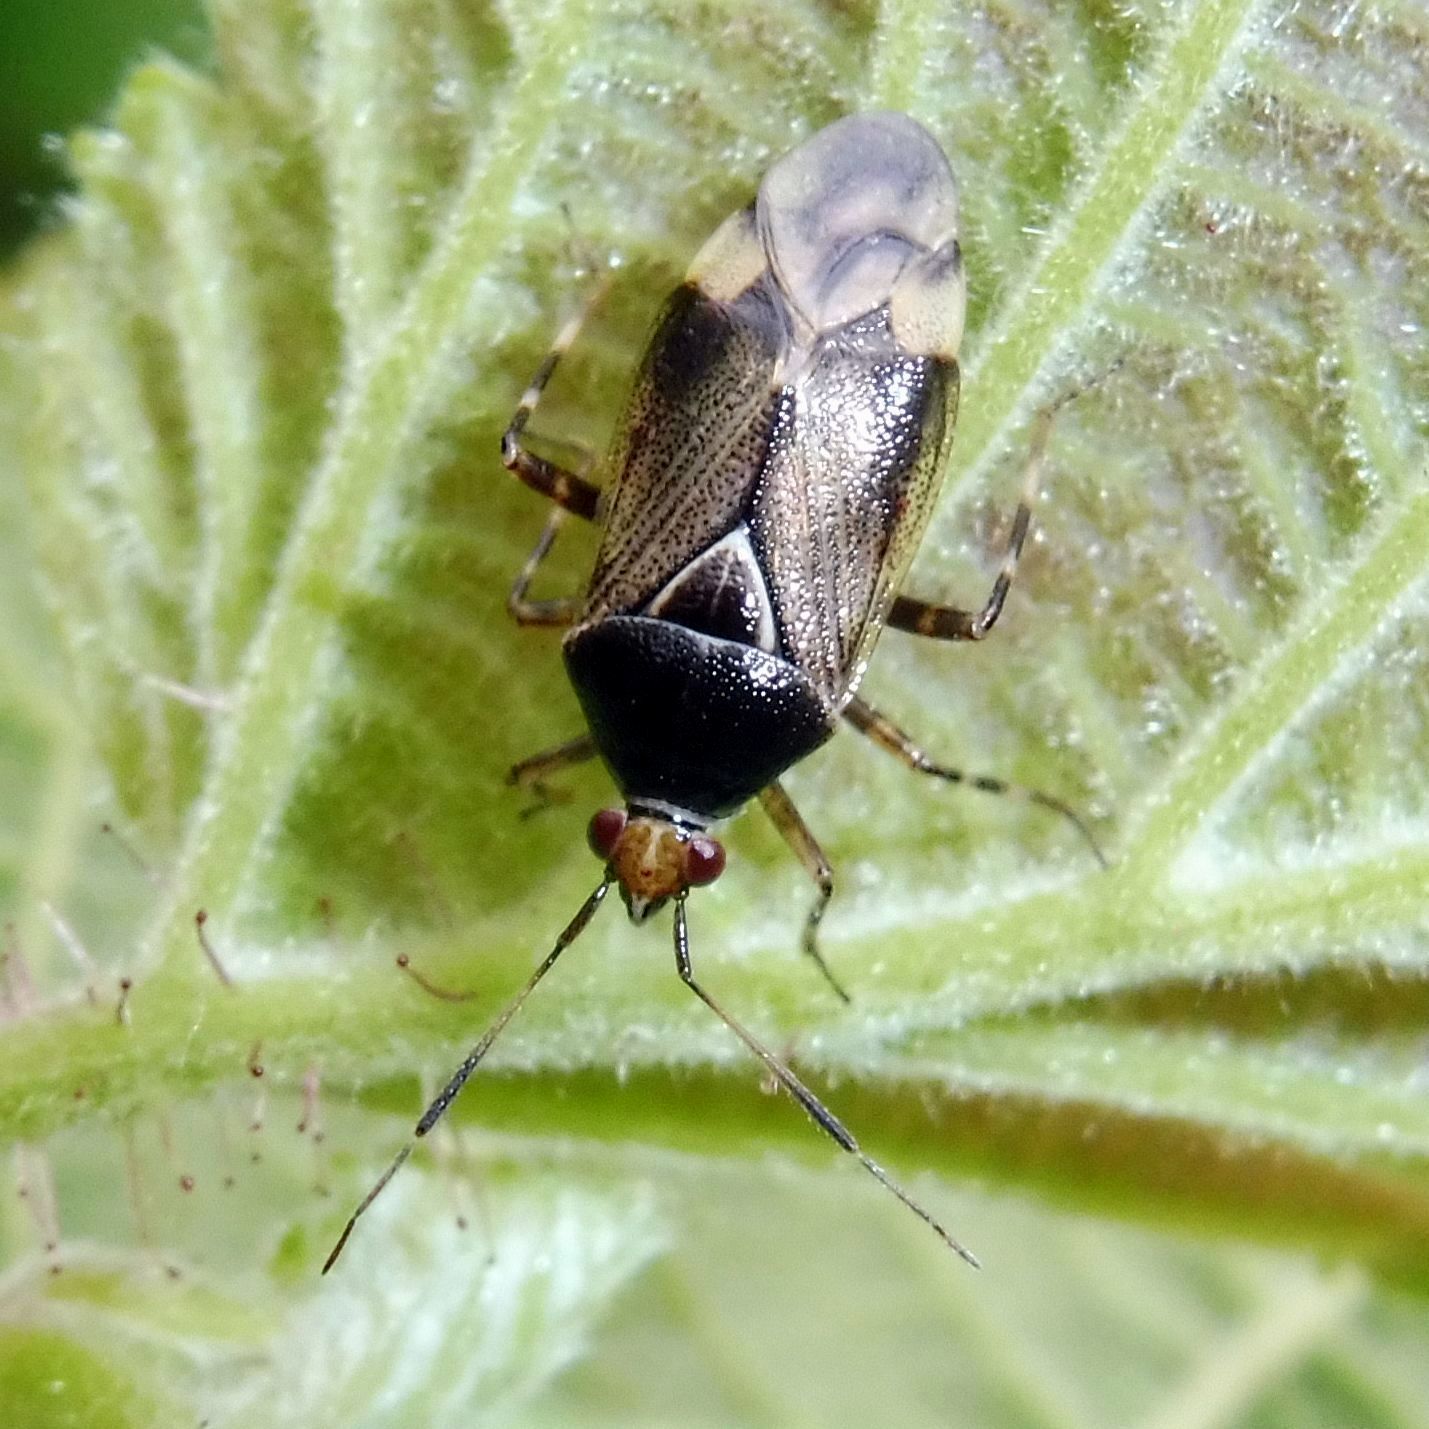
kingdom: Animalia
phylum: Arthropoda
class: Insecta
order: Hemiptera
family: Miridae
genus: Deraeocoris
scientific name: Deraeocoris flavilinea
